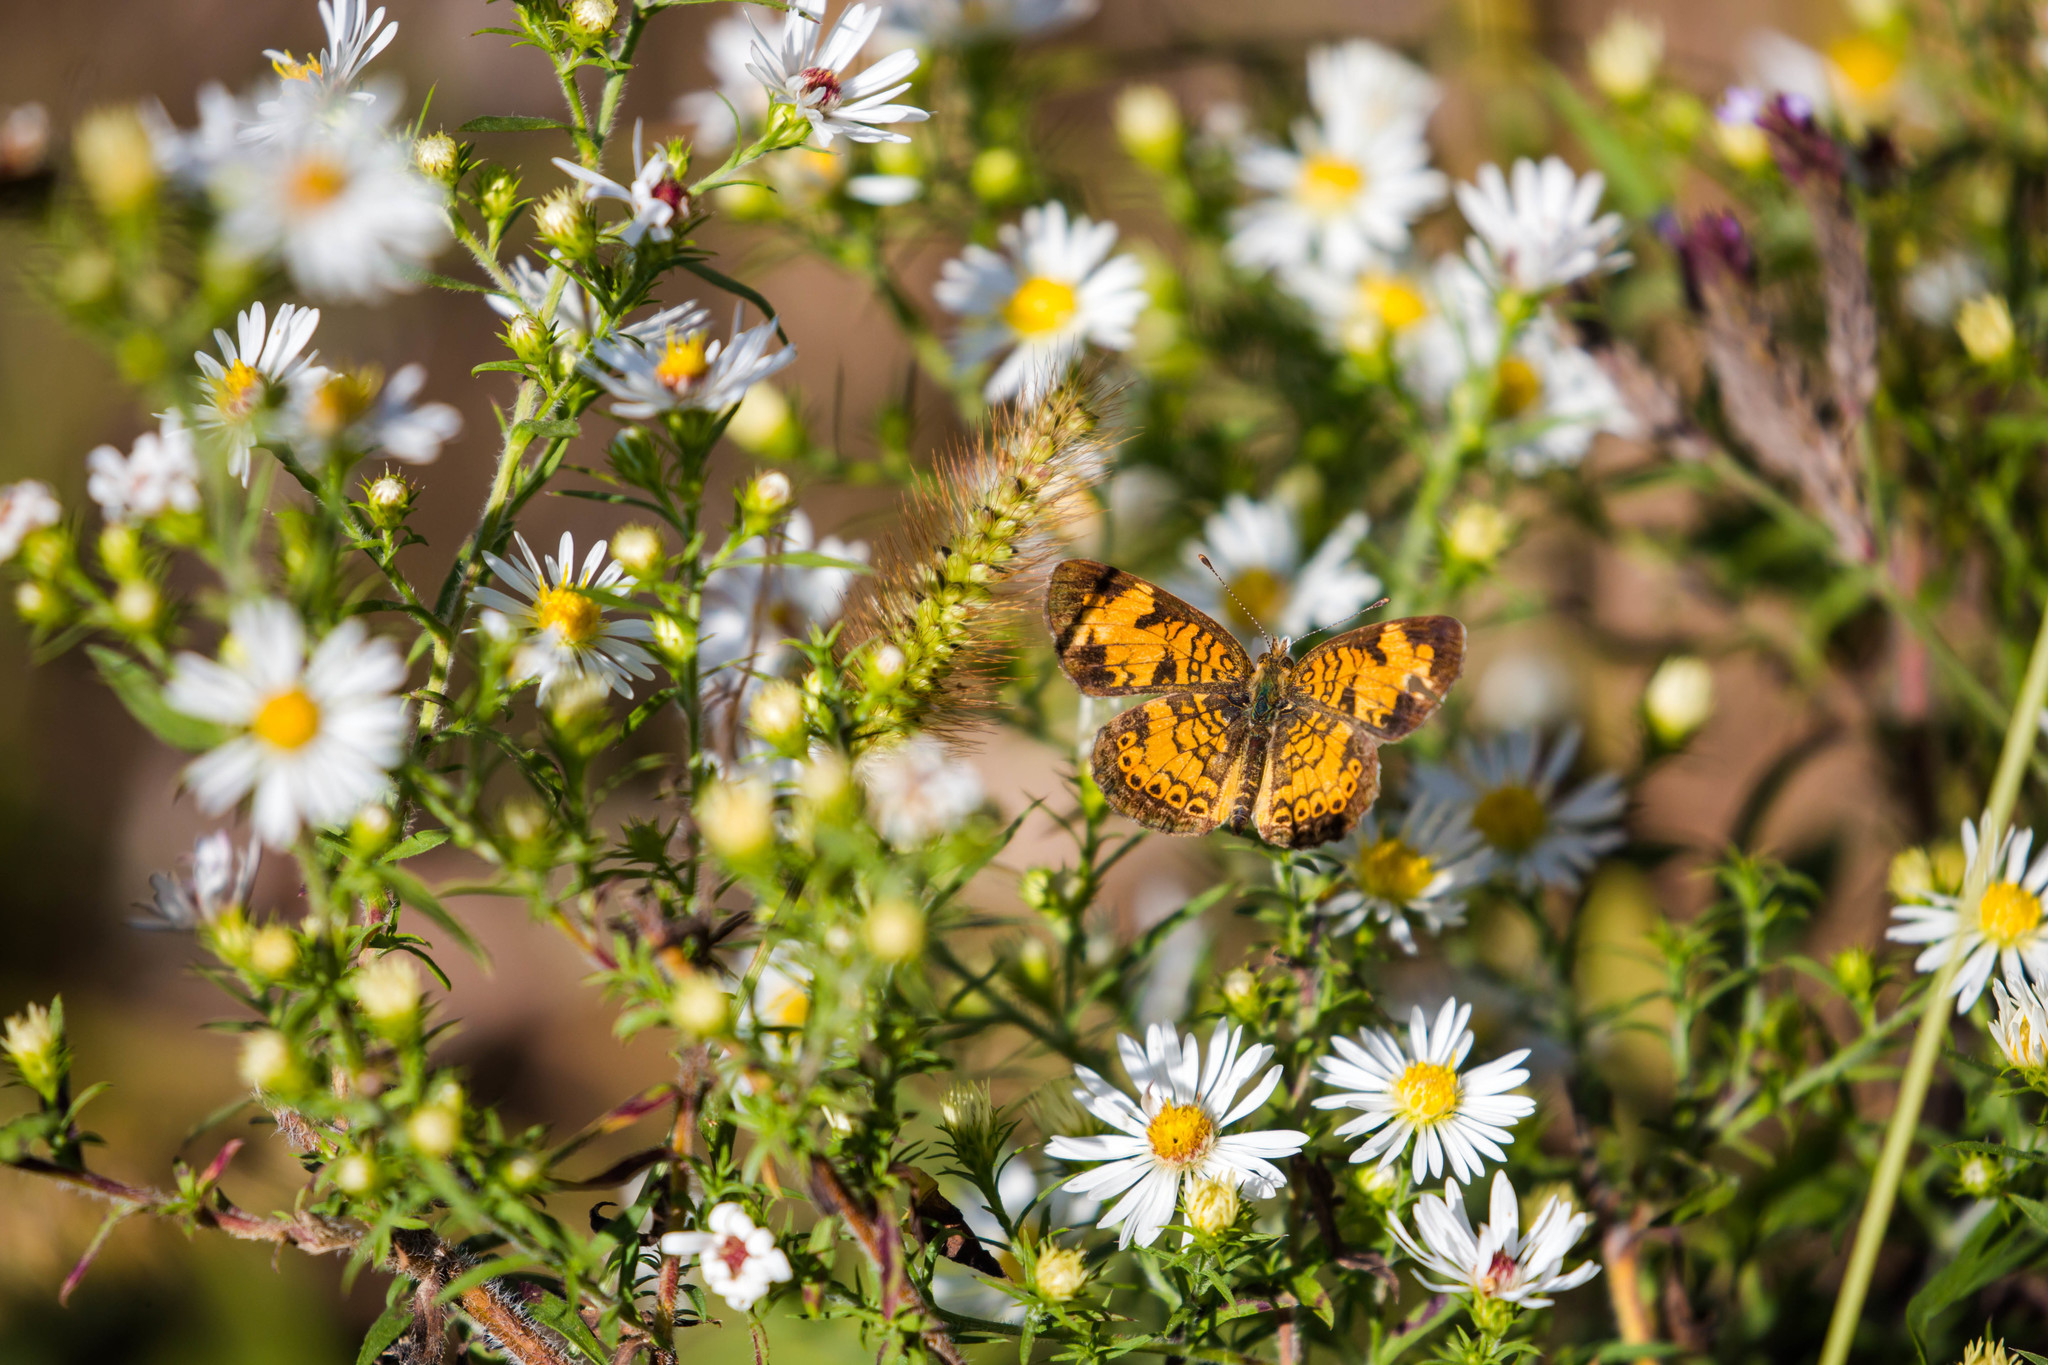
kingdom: Animalia
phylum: Arthropoda
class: Insecta
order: Lepidoptera
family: Nymphalidae
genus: Phyciodes
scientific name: Phyciodes tharos
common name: Pearl crescent
